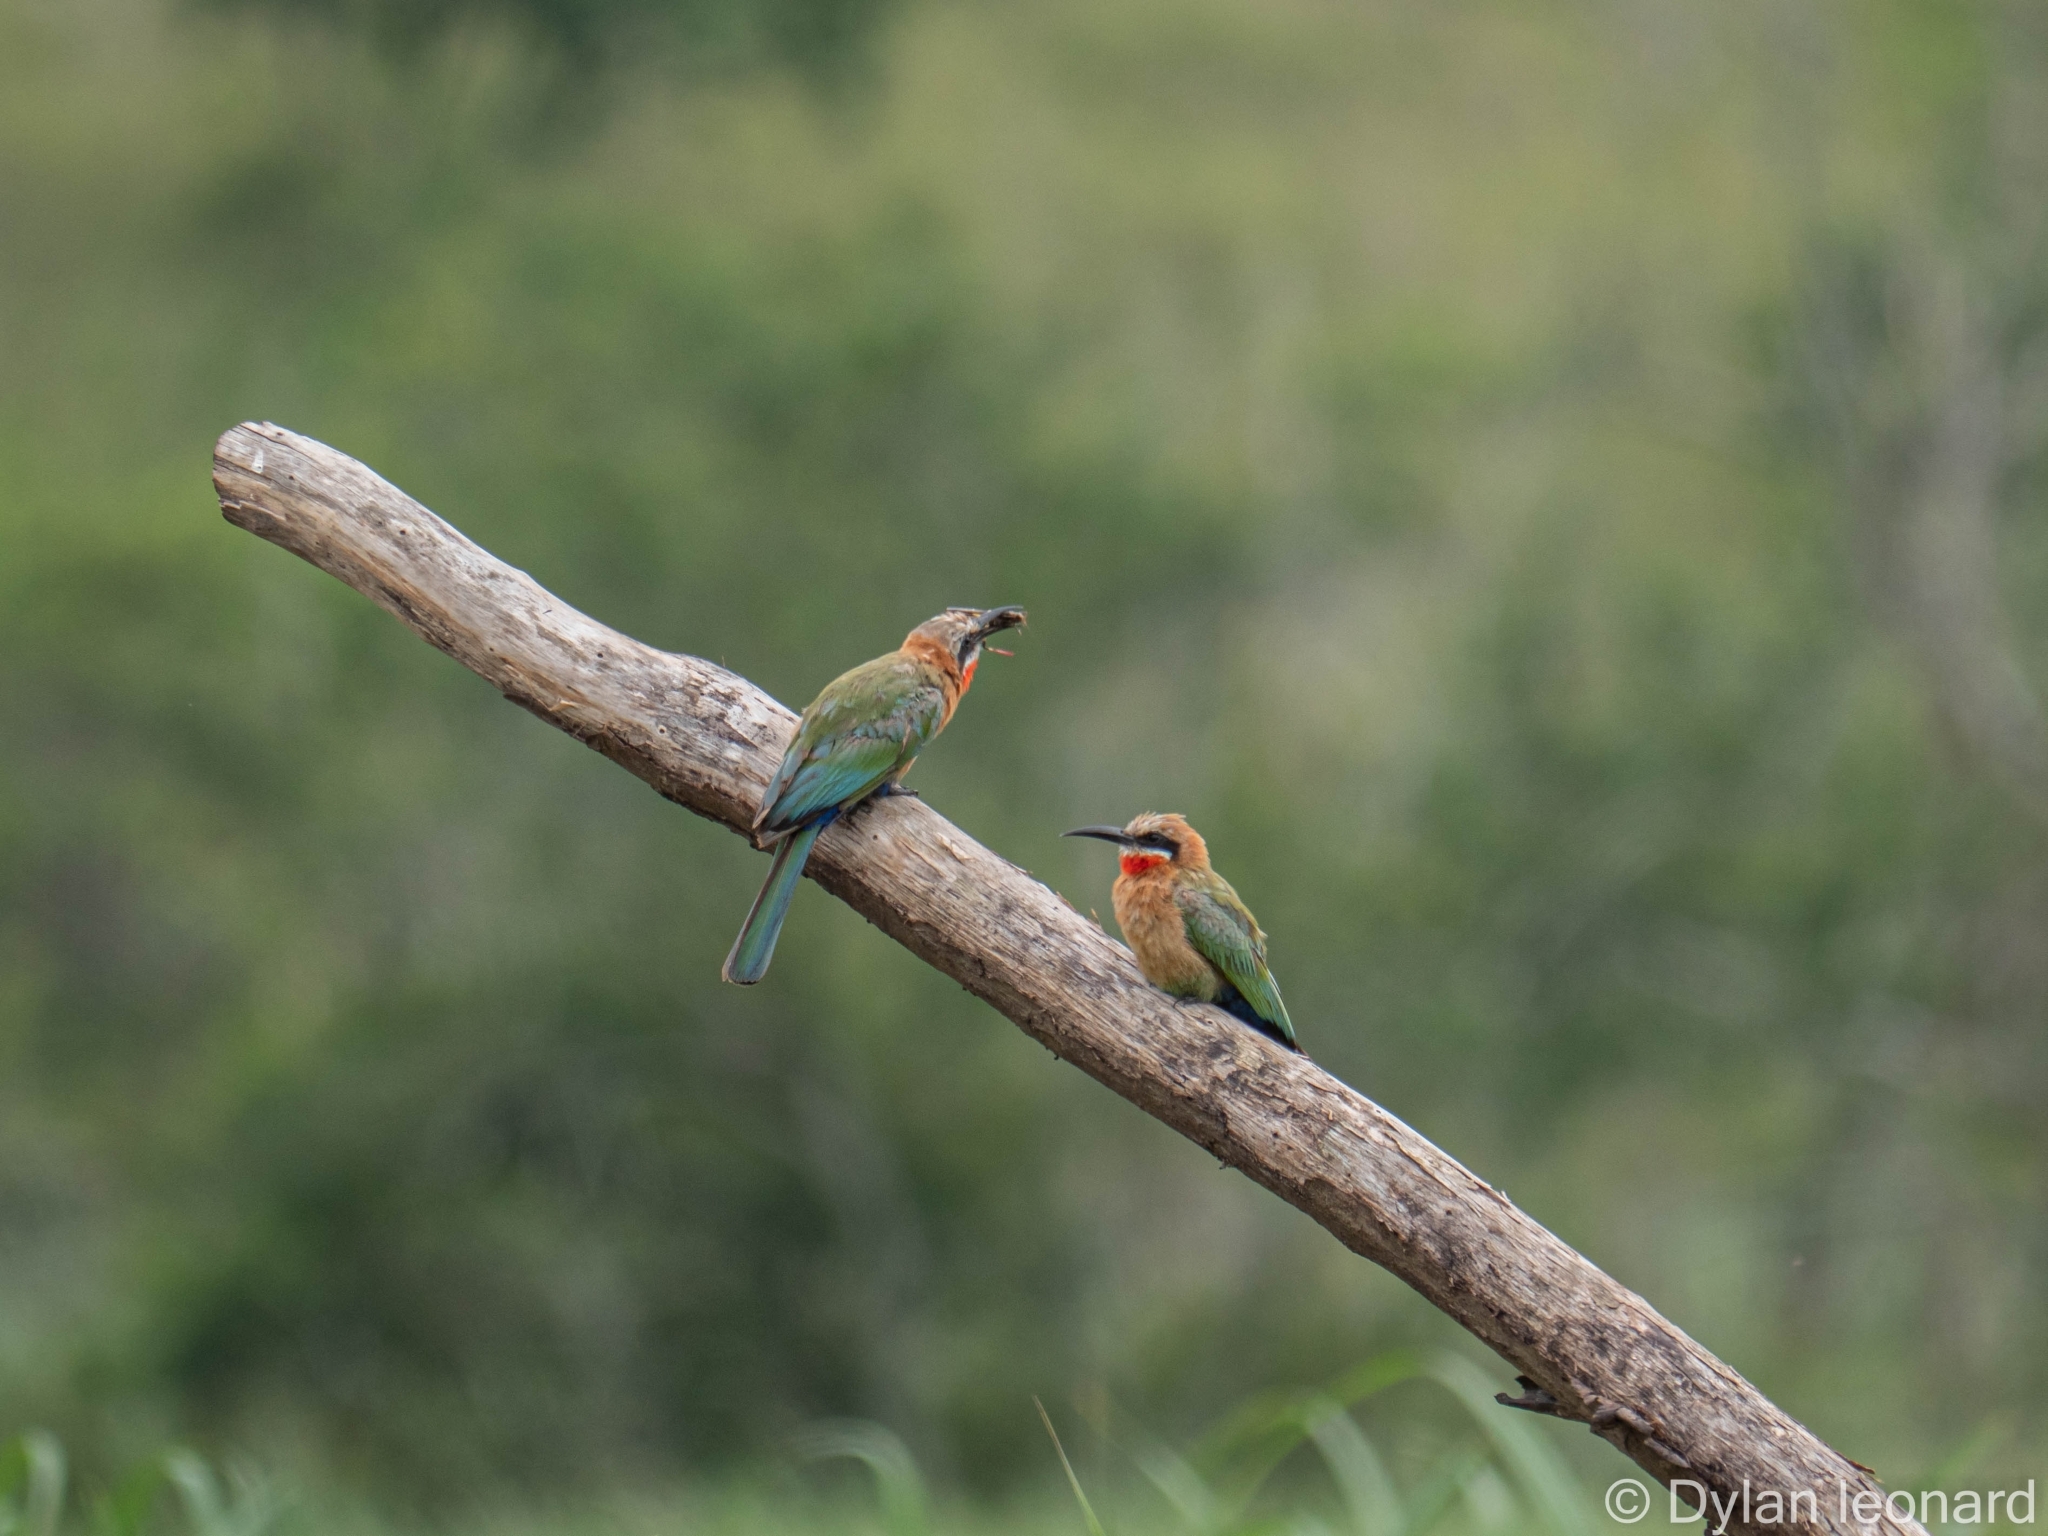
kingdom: Animalia
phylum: Chordata
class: Aves
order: Coraciiformes
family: Meropidae
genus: Merops
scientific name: Merops bullockoides
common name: White-fronted bee-eater
